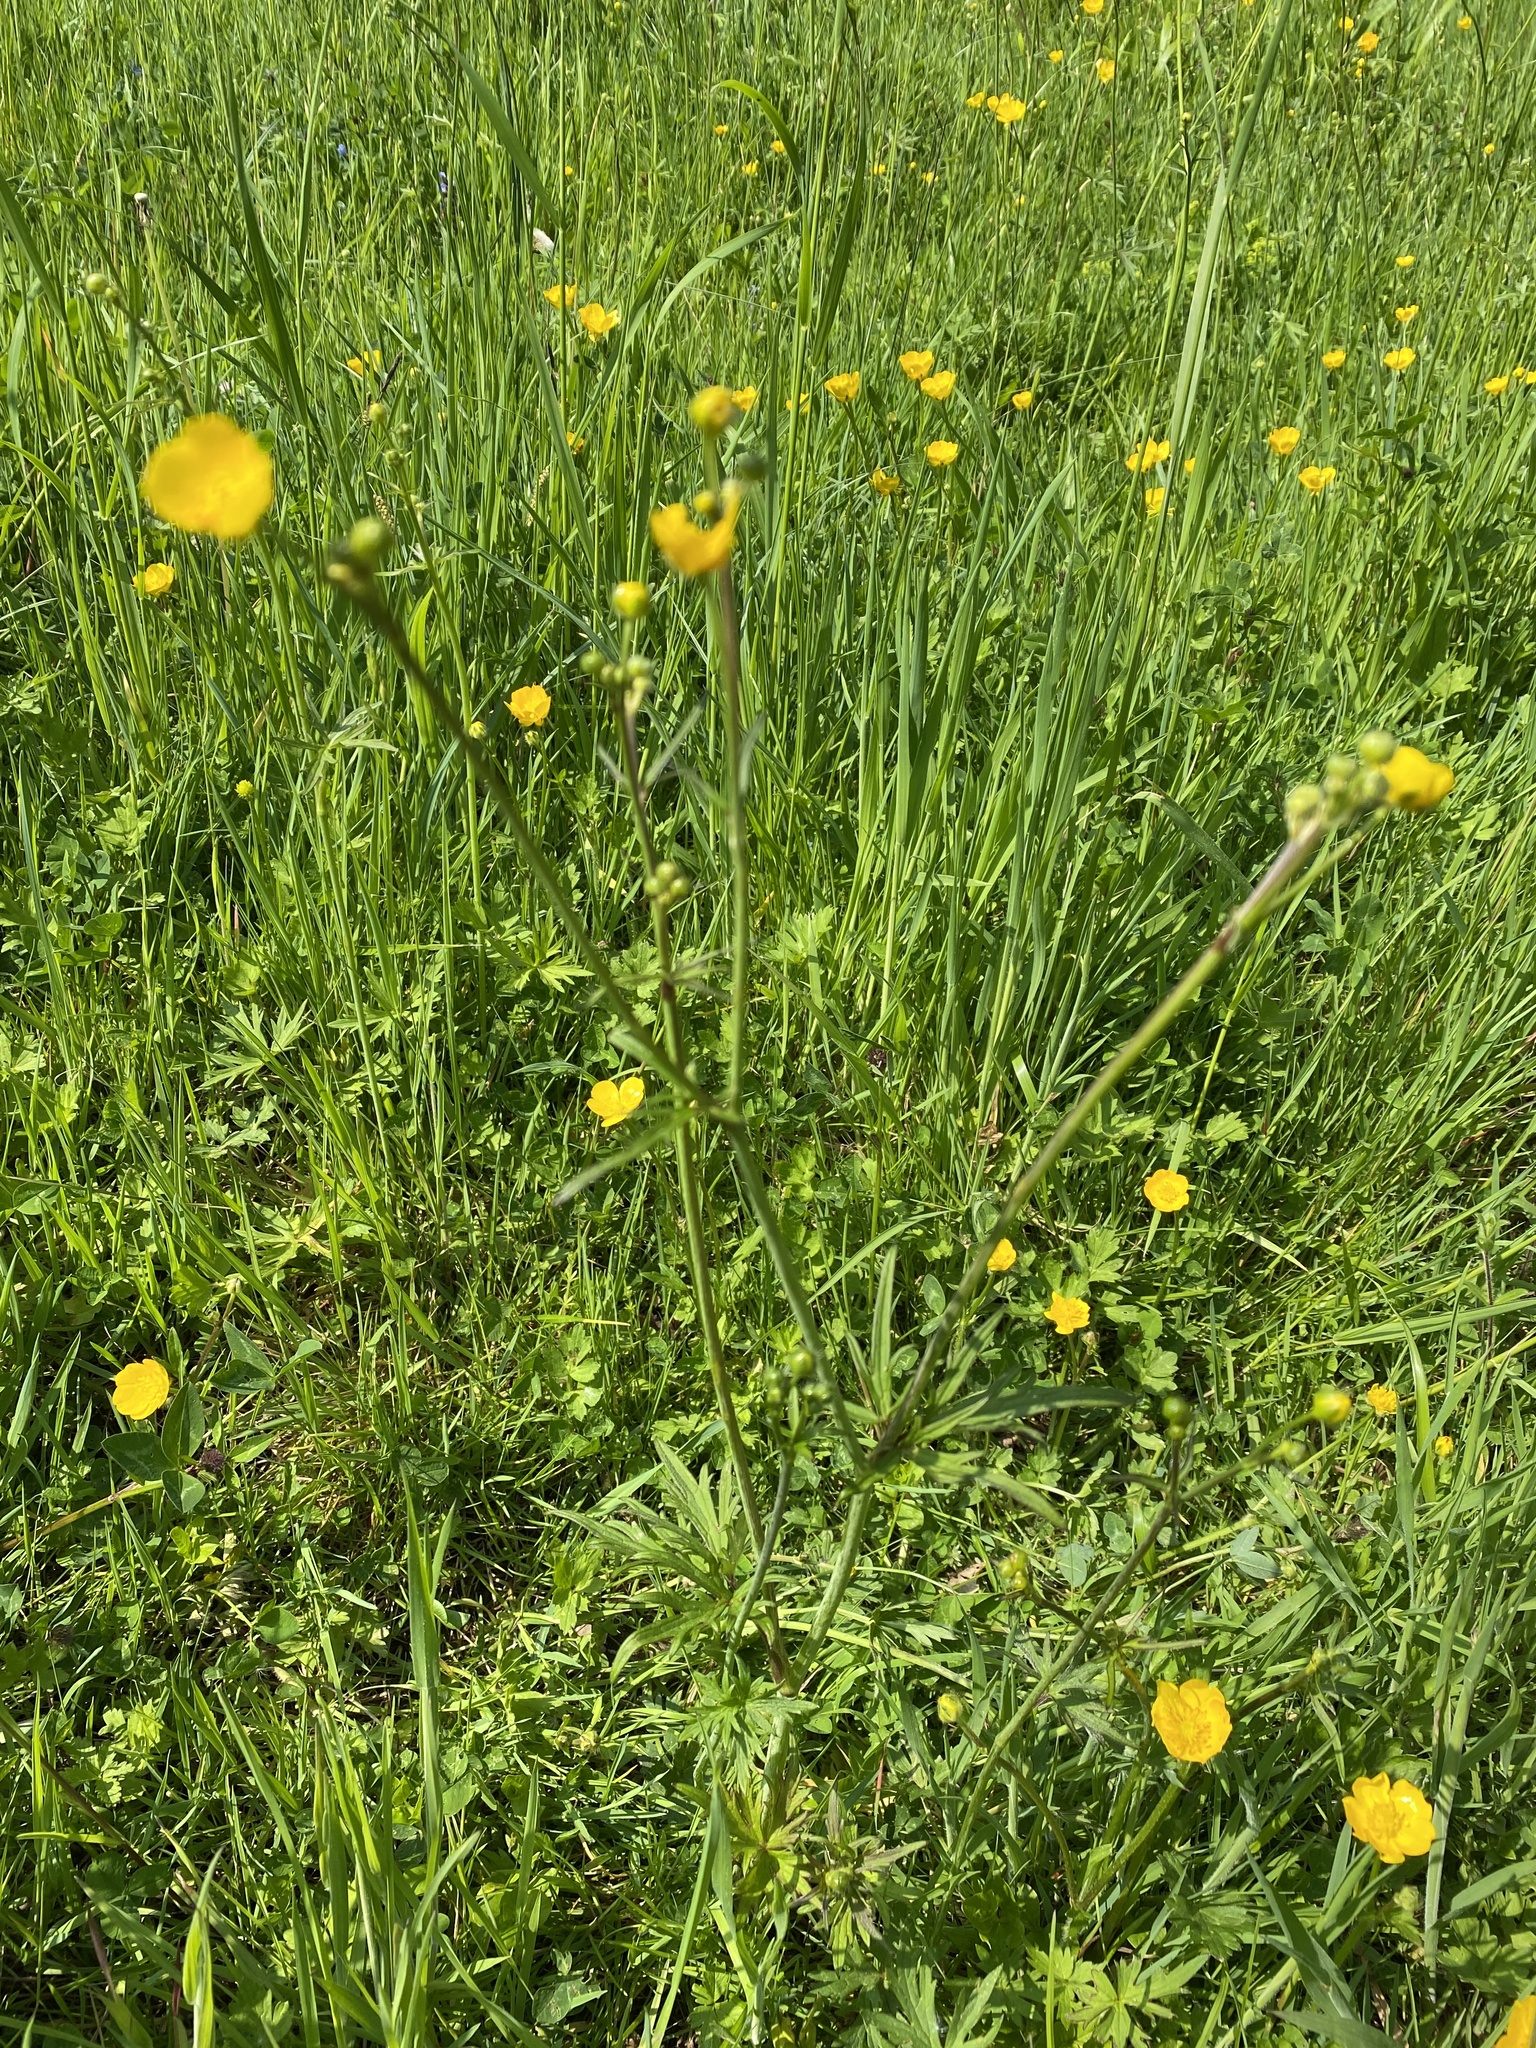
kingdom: Plantae
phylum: Tracheophyta
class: Magnoliopsida
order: Ranunculales
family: Ranunculaceae
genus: Ranunculus
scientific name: Ranunculus acris
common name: Meadow buttercup
